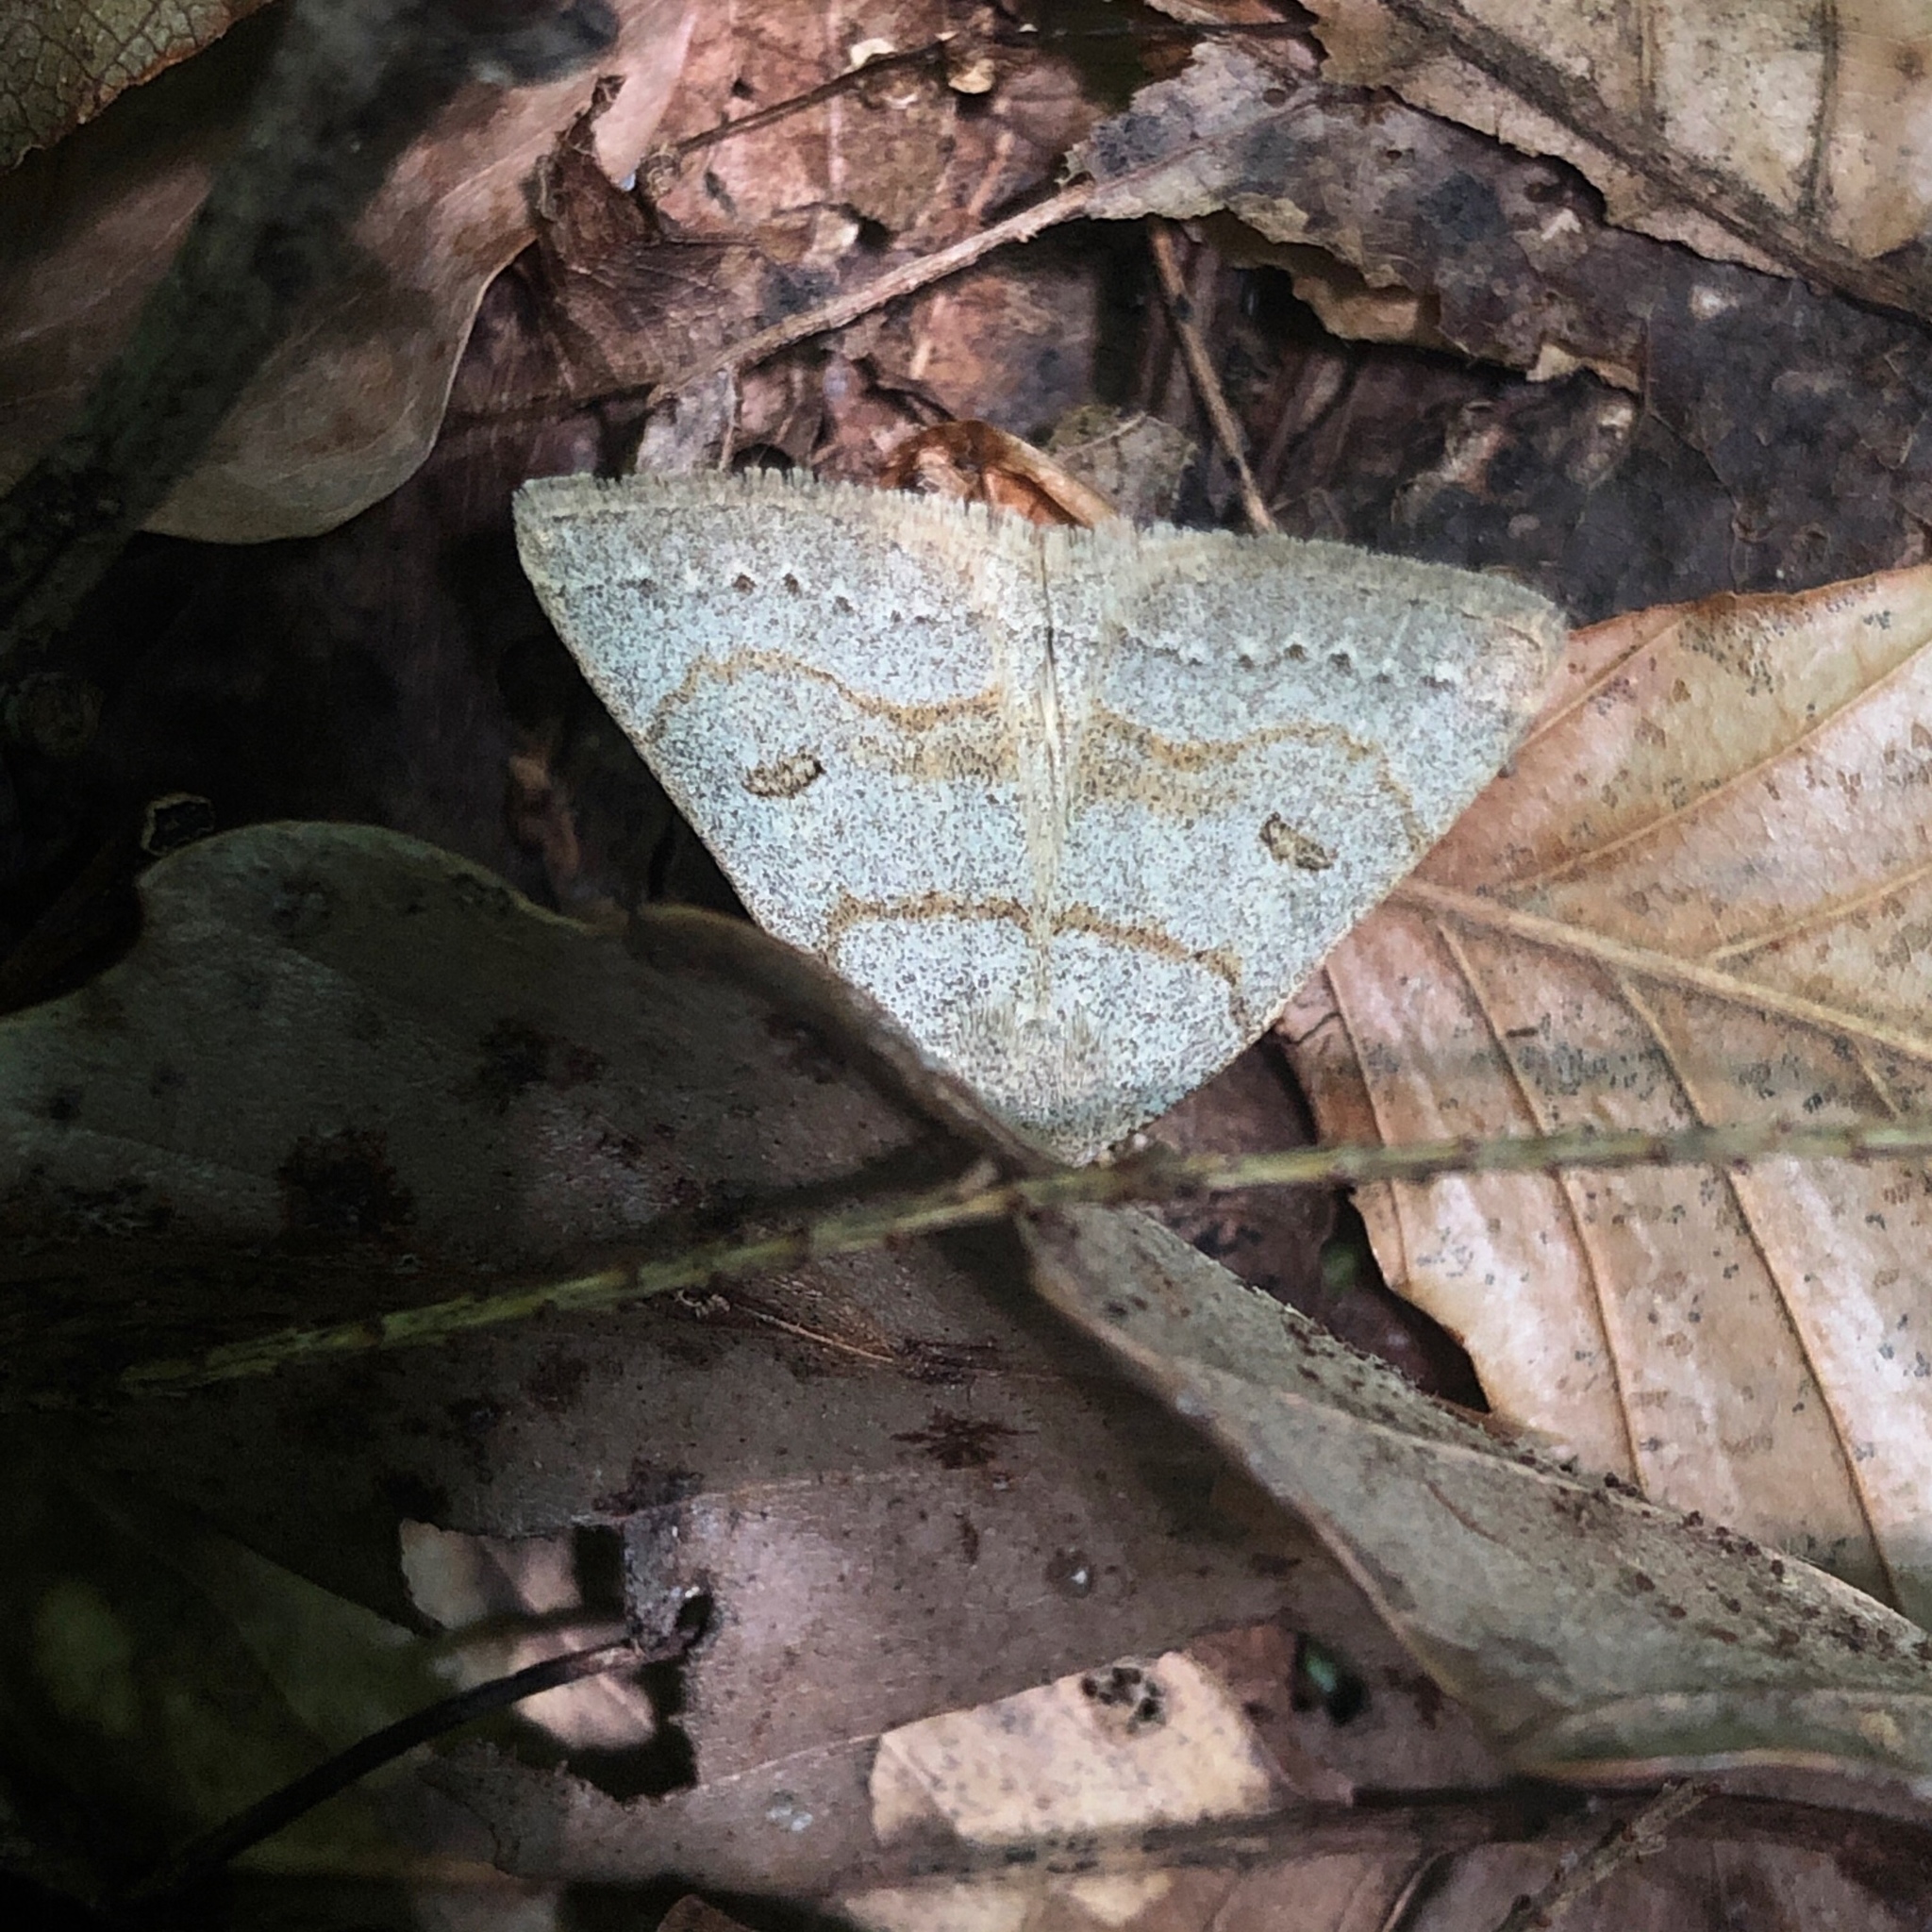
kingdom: Animalia
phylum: Arthropoda
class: Insecta
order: Lepidoptera
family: Erebidae
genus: Macrochilo
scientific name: Macrochilo morbidalis
